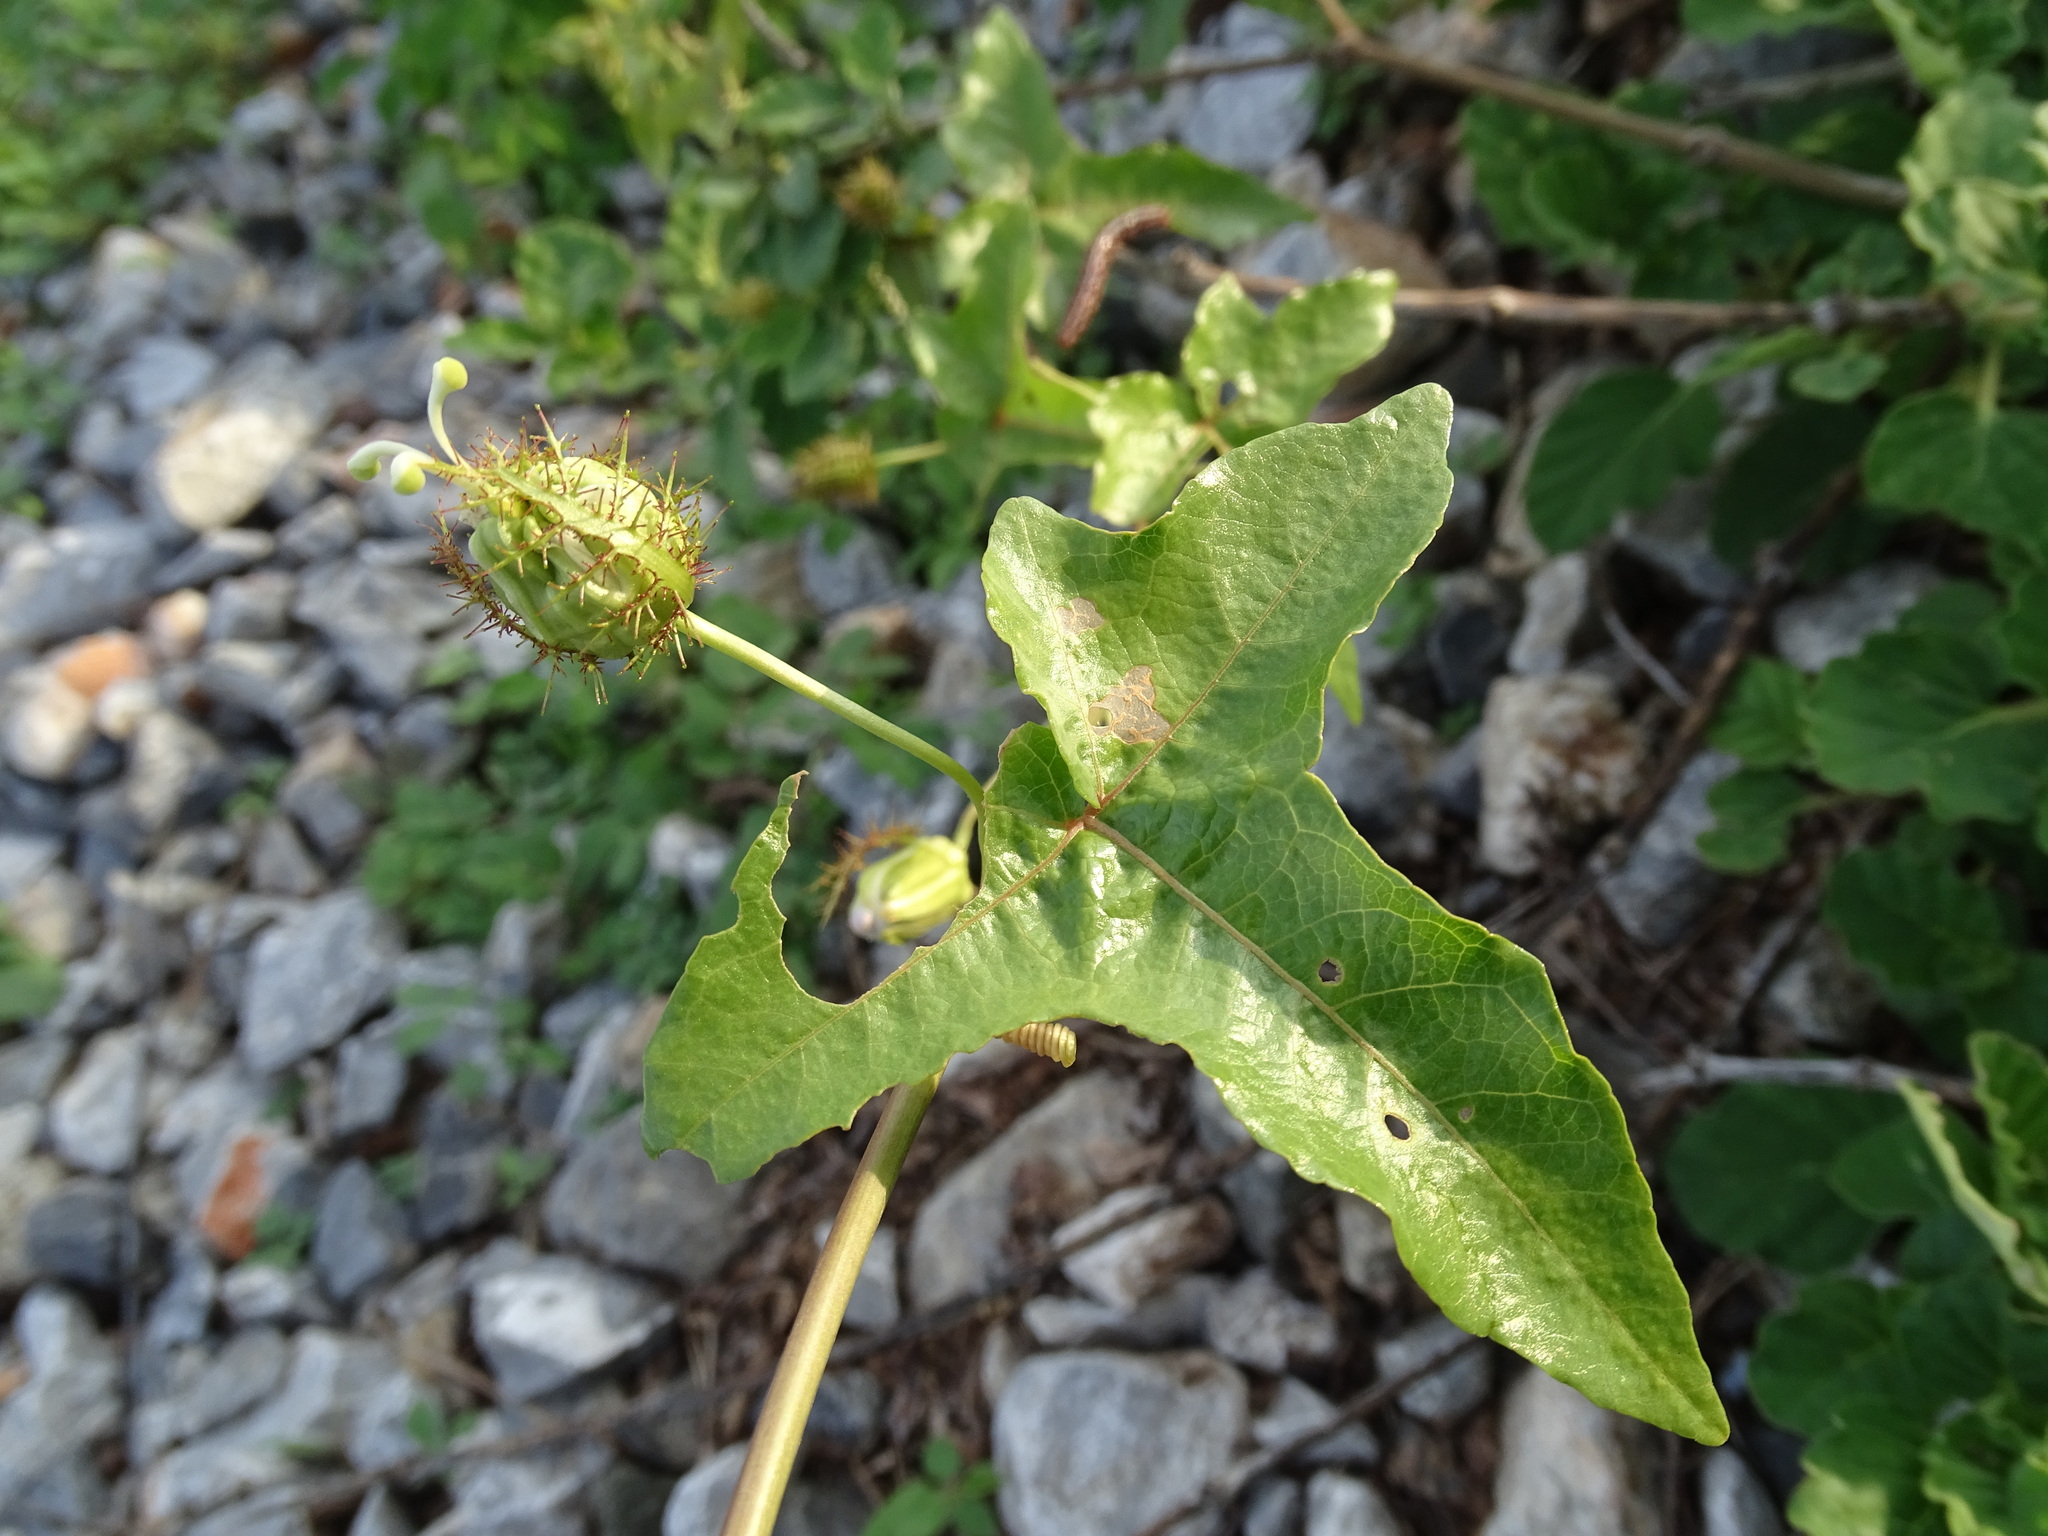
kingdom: Plantae
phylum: Tracheophyta
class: Magnoliopsida
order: Malpighiales
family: Passifloraceae
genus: Passiflora
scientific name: Passiflora ciliata
